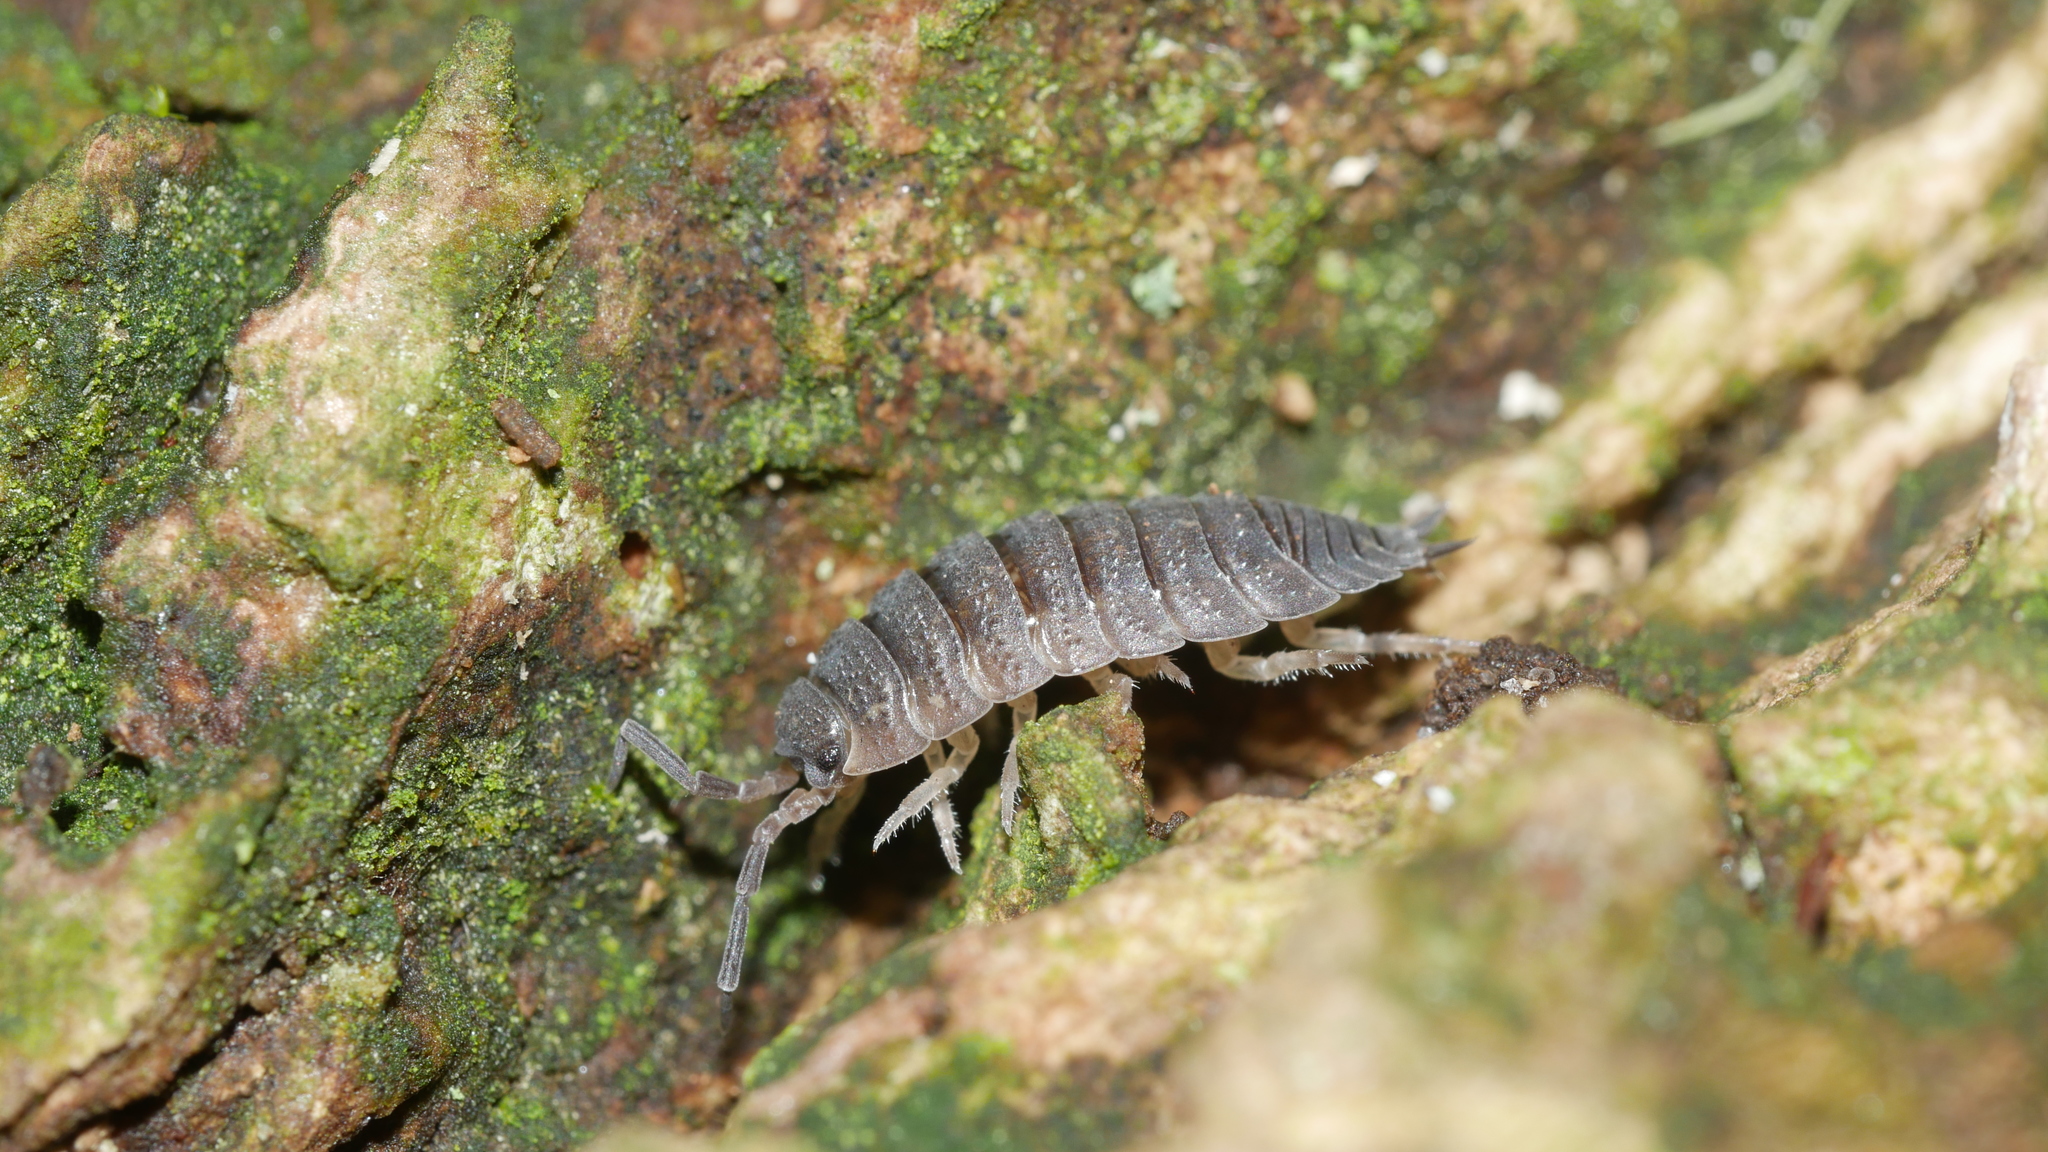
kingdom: Animalia
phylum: Arthropoda
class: Malacostraca
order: Isopoda
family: Porcellionidae
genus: Porcellio
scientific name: Porcellio scaber
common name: Common rough woodlouse
